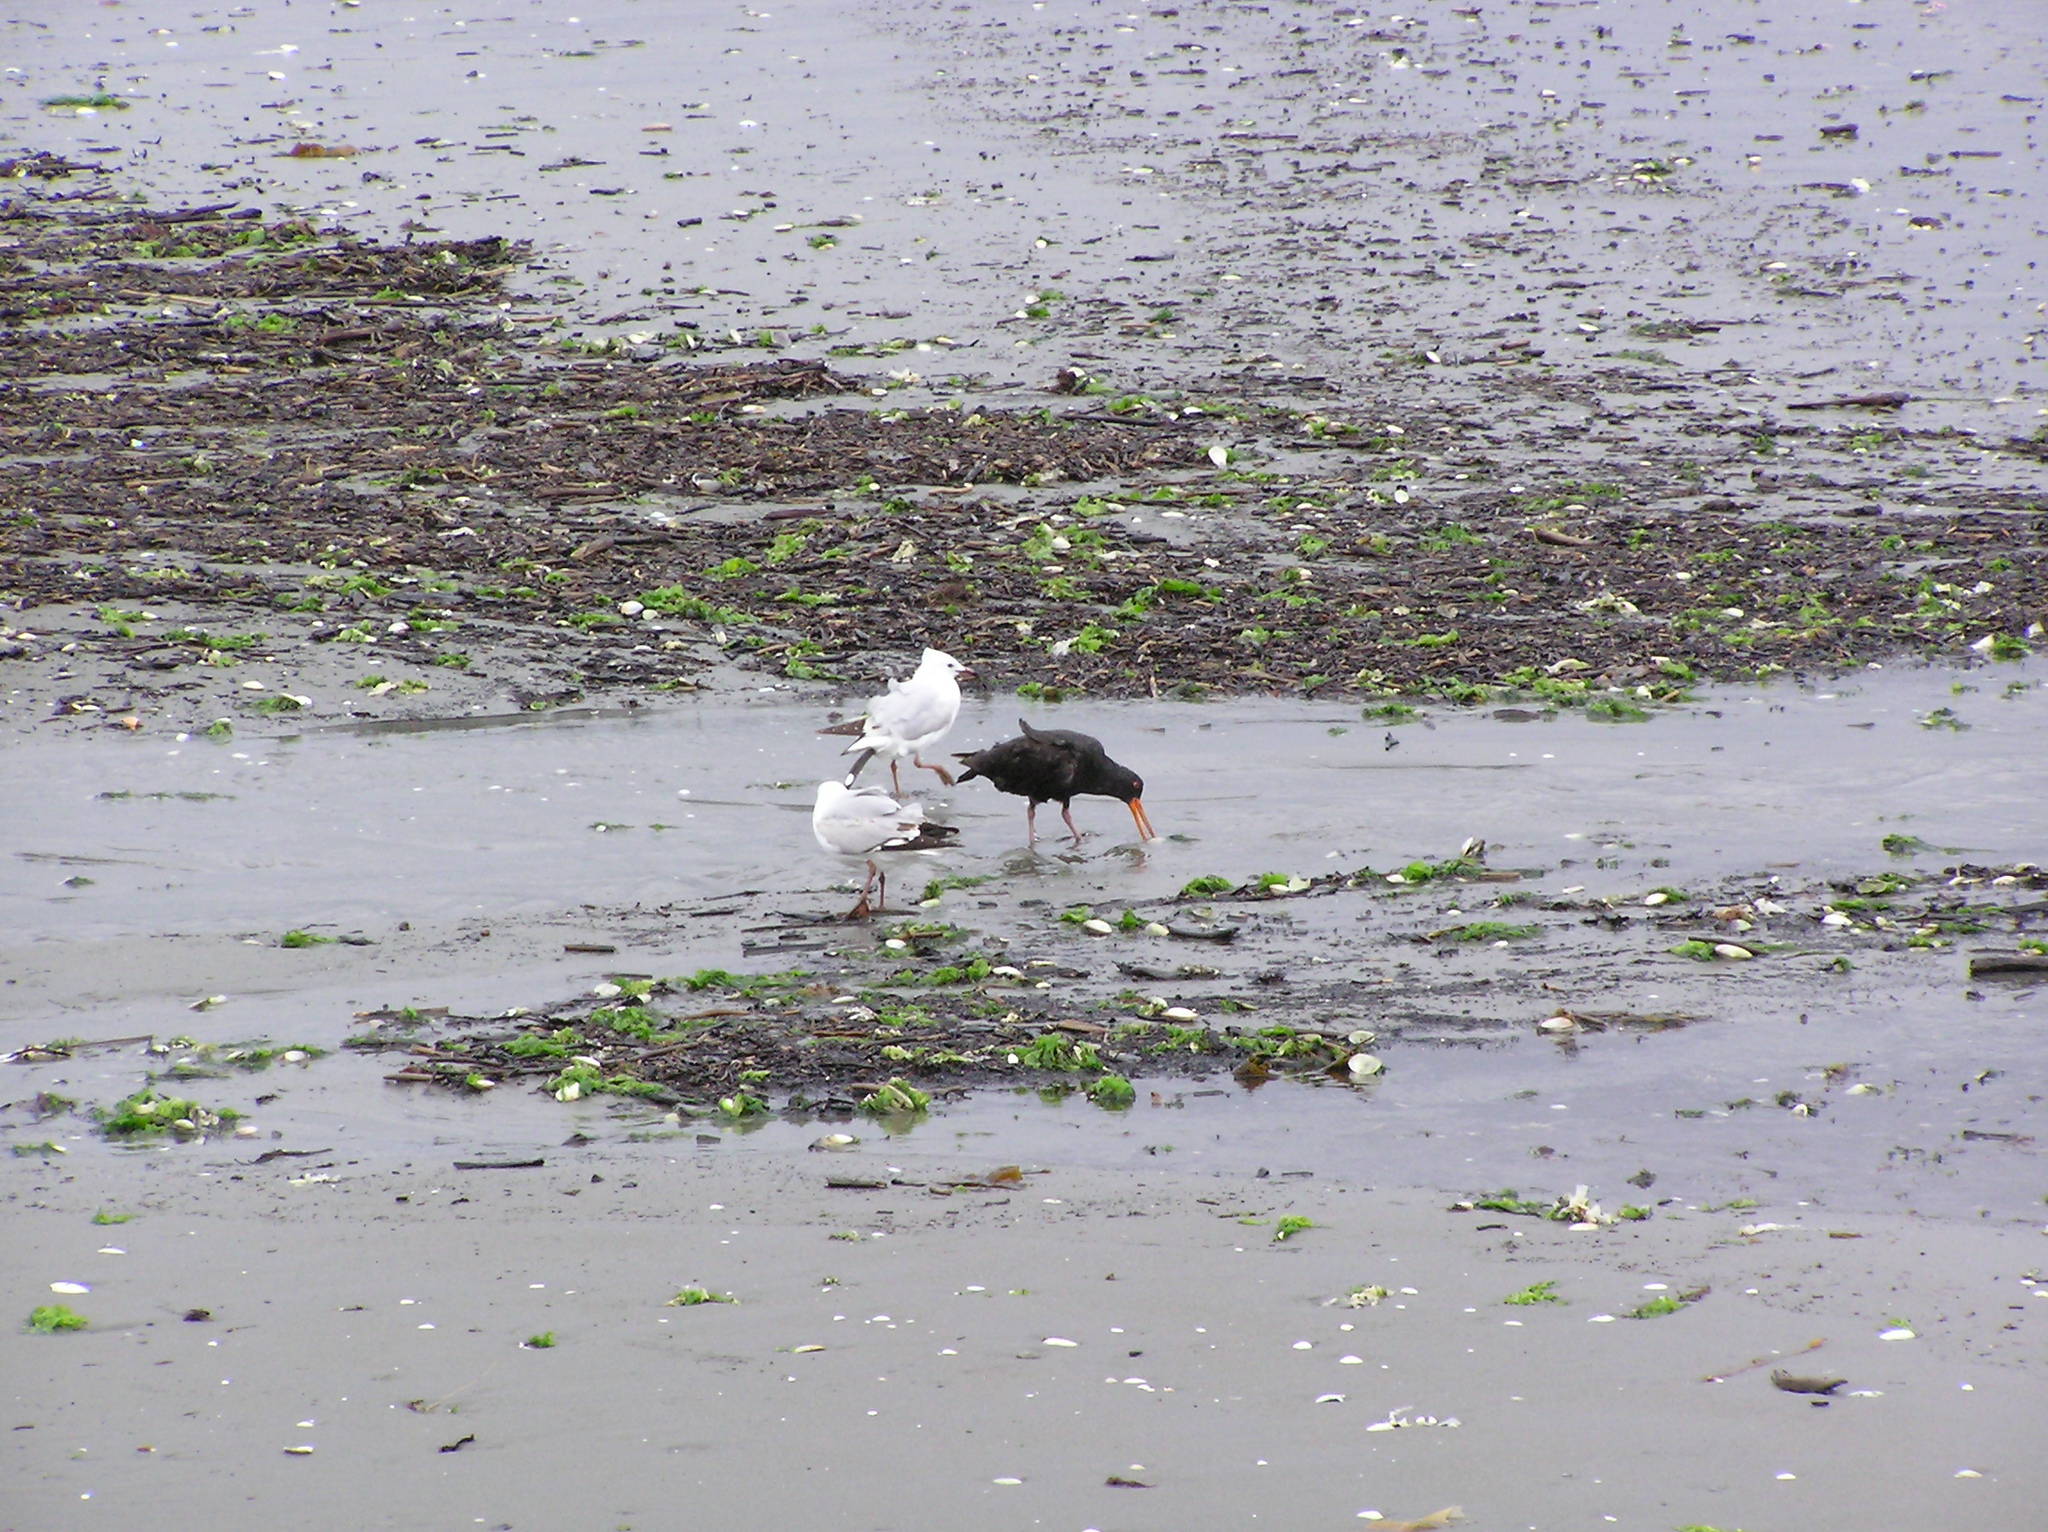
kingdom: Animalia
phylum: Chordata
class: Aves
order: Charadriiformes
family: Laridae
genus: Chroicocephalus
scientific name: Chroicocephalus novaehollandiae
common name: Silver gull
